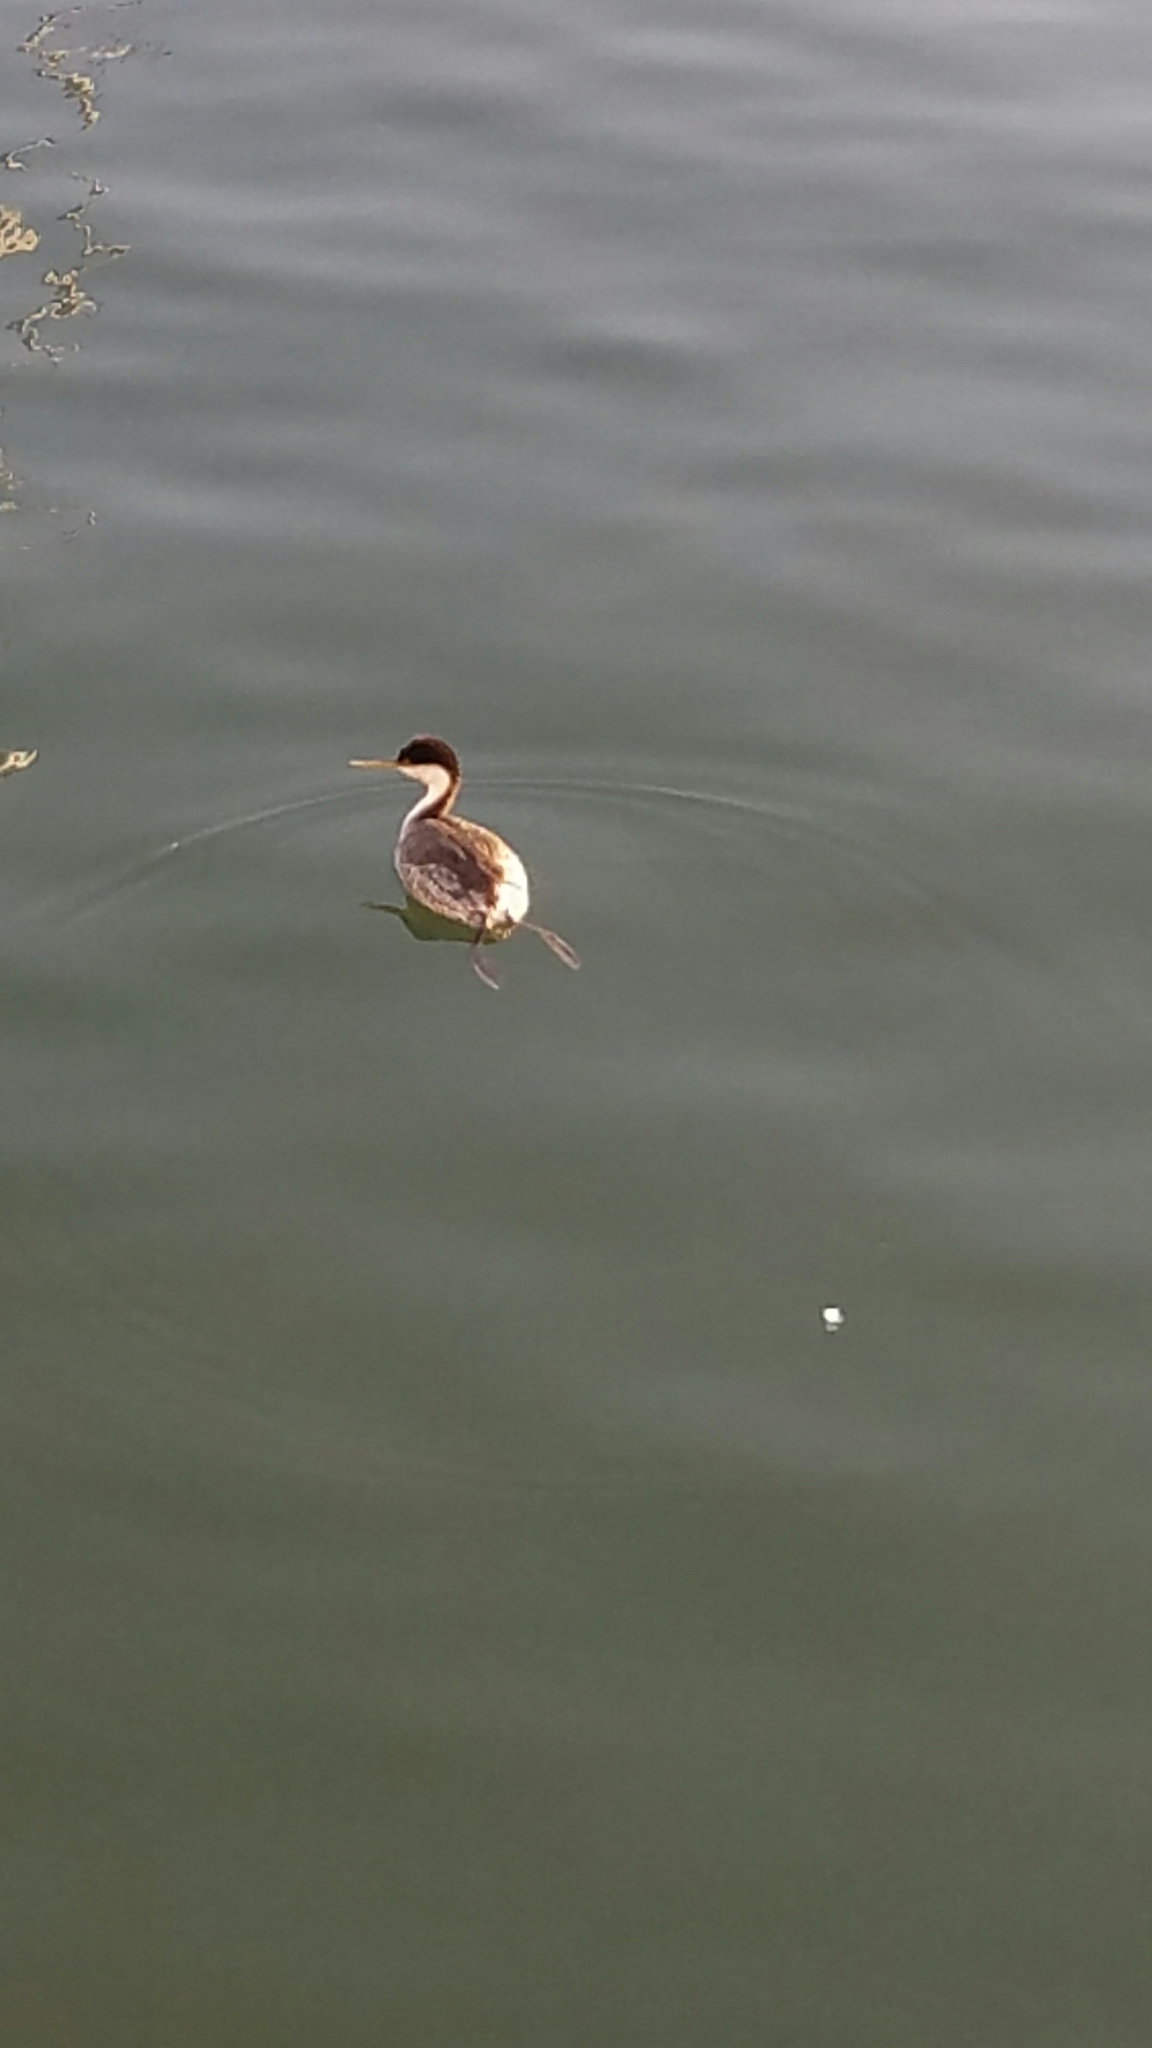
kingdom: Animalia
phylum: Chordata
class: Aves
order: Podicipediformes
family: Podicipedidae
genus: Aechmophorus
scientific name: Aechmophorus occidentalis
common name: Western grebe
